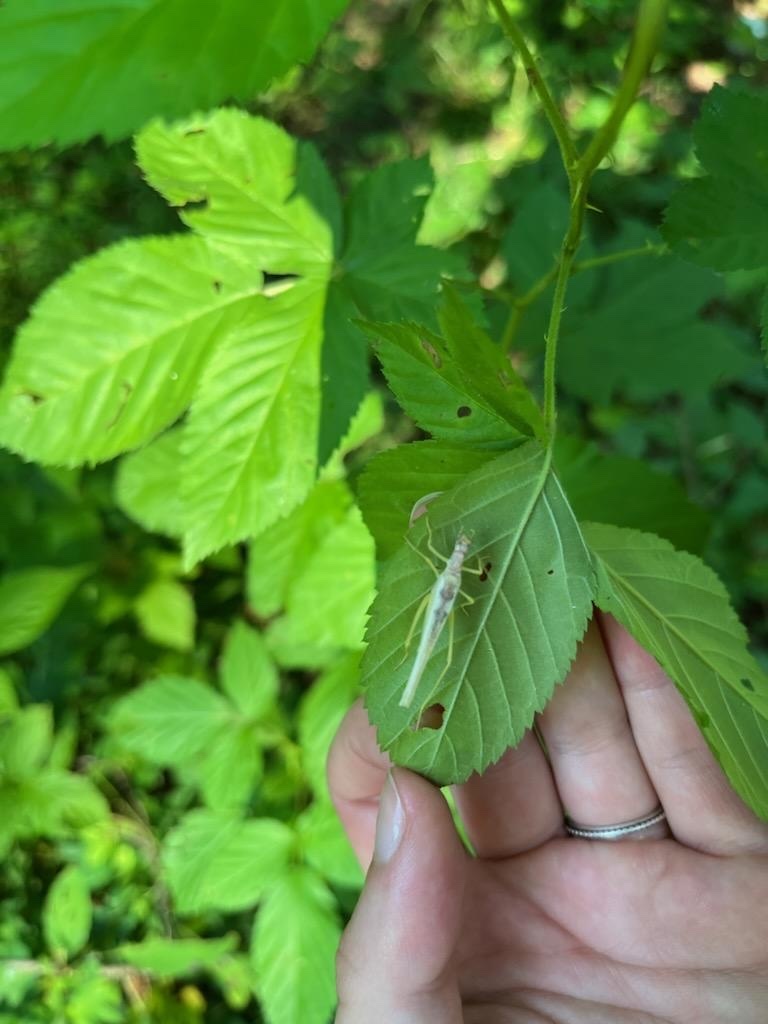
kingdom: Animalia
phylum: Arthropoda
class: Insecta
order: Orthoptera
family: Gryllidae
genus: Neoxabea
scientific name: Neoxabea bipunctata
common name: Two-spotted tree cricket
